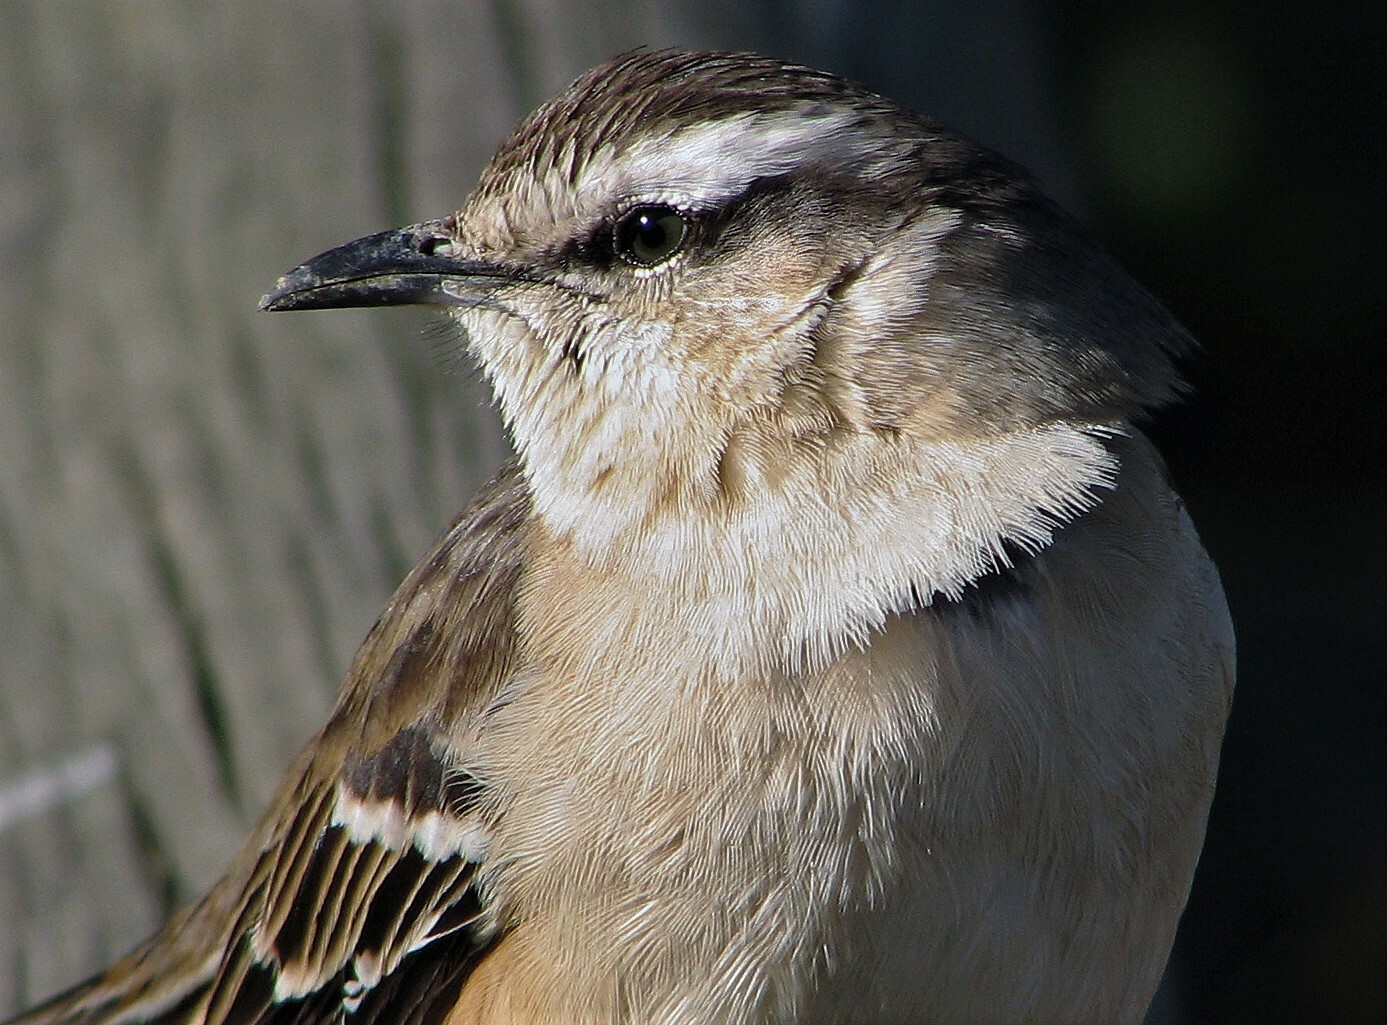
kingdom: Animalia
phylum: Chordata
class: Aves
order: Passeriformes
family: Mimidae
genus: Mimus
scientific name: Mimus saturninus
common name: Chalk-browed mockingbird
